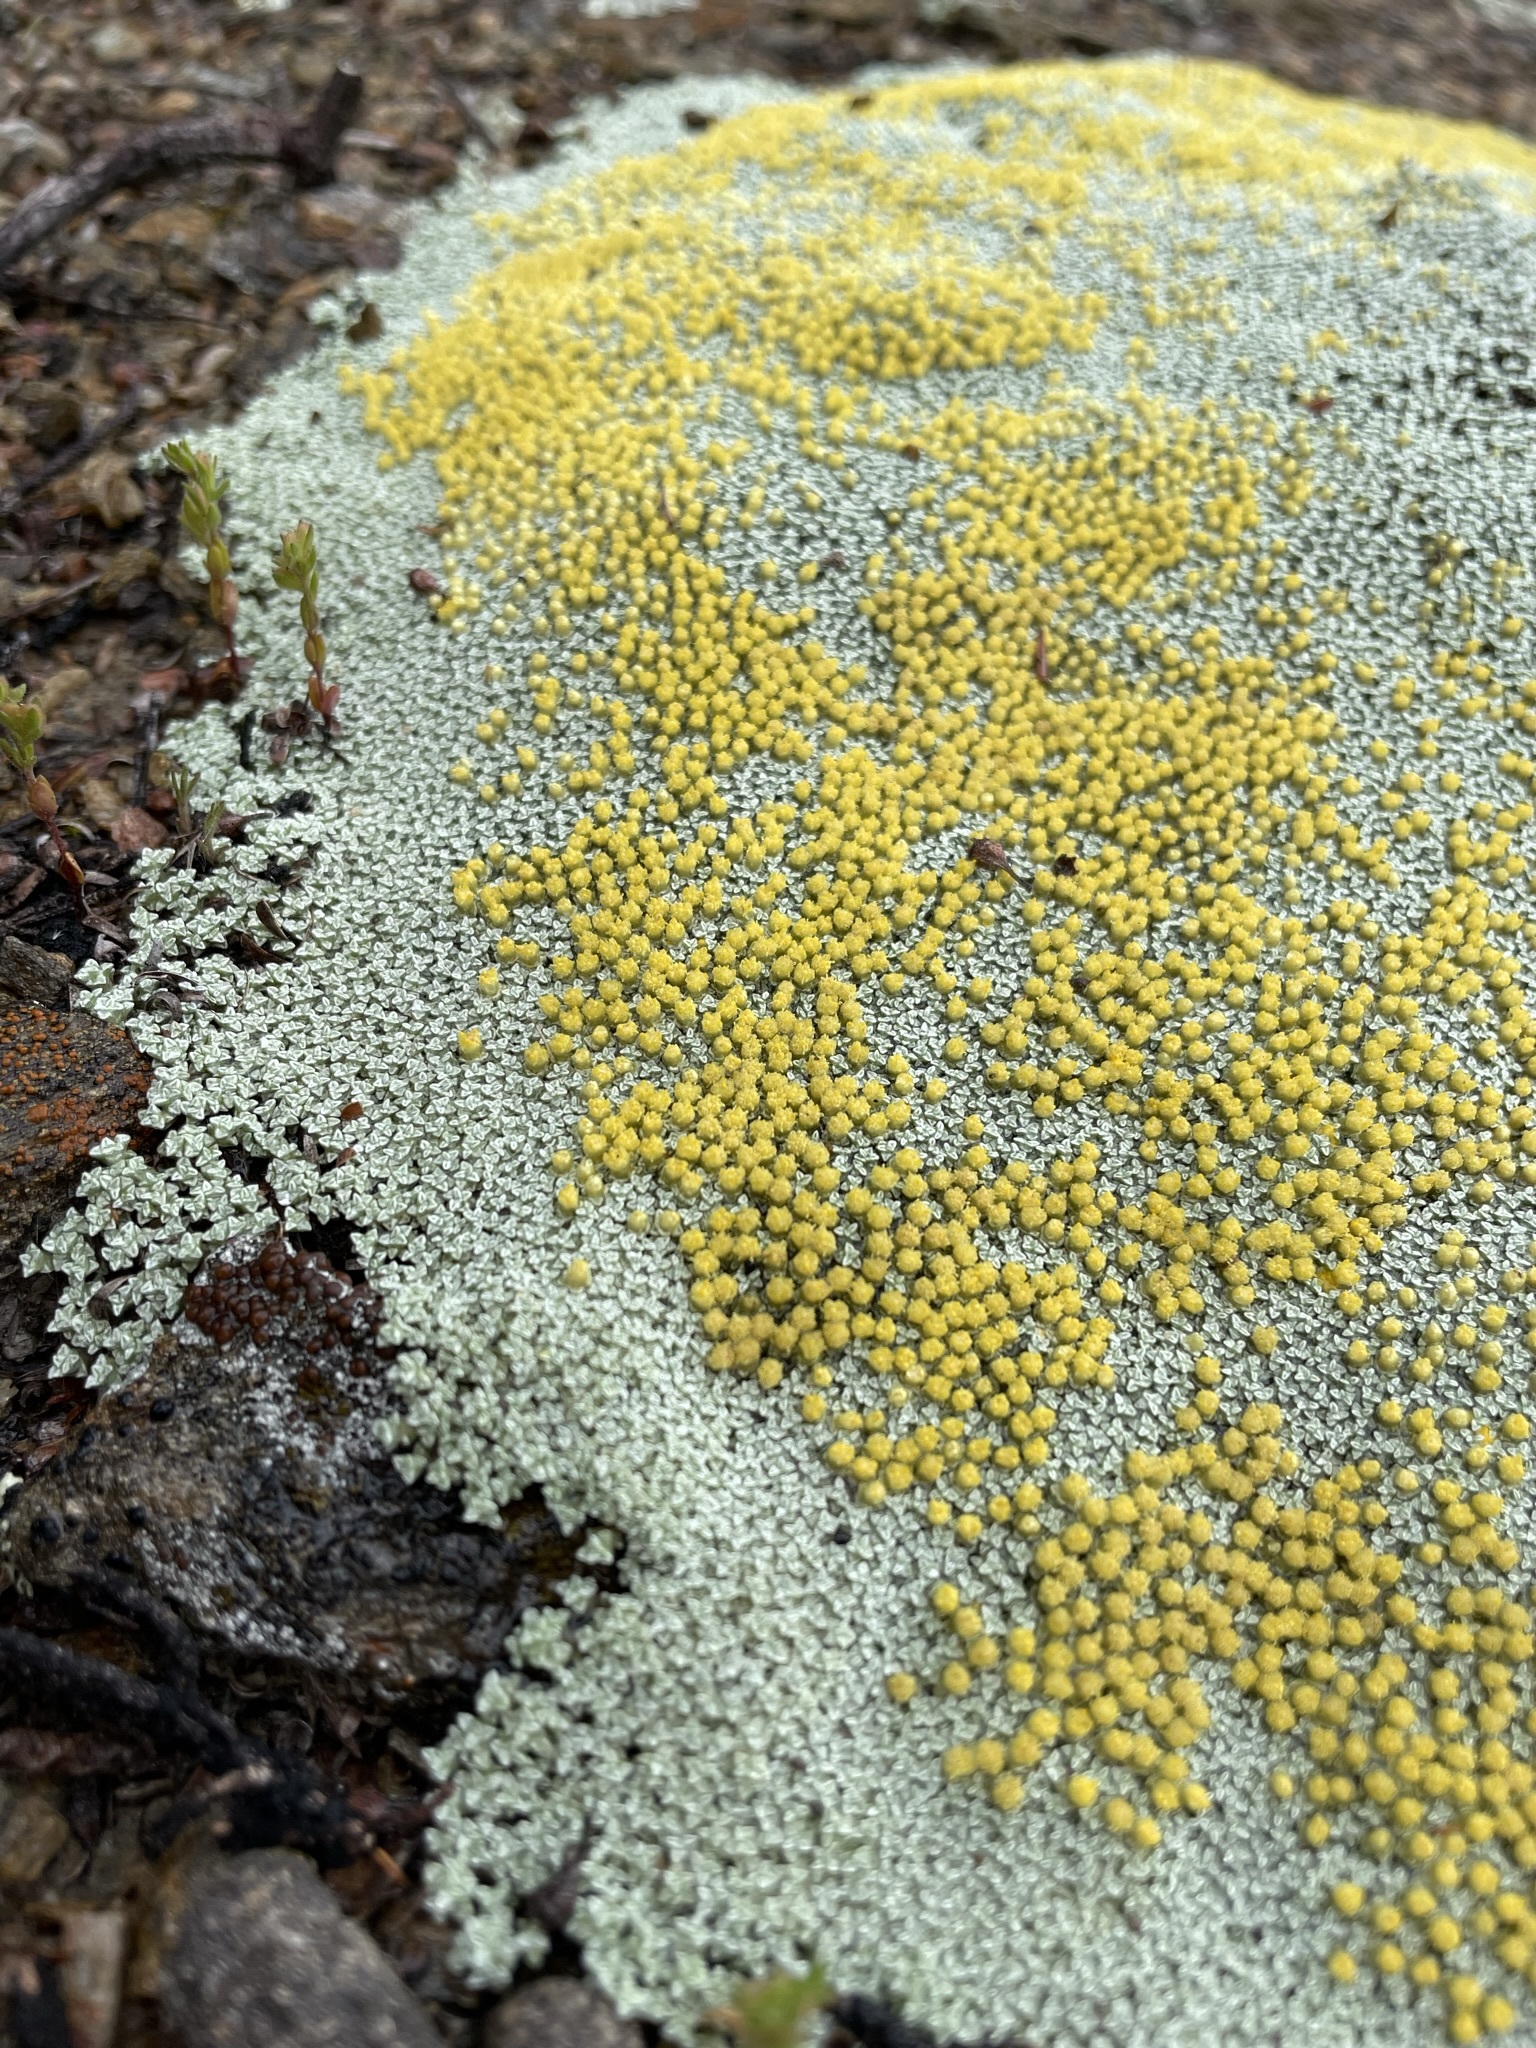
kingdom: Plantae
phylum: Tracheophyta
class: Magnoliopsida
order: Asterales
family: Asteraceae
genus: Raoulia
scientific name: Raoulia australis
